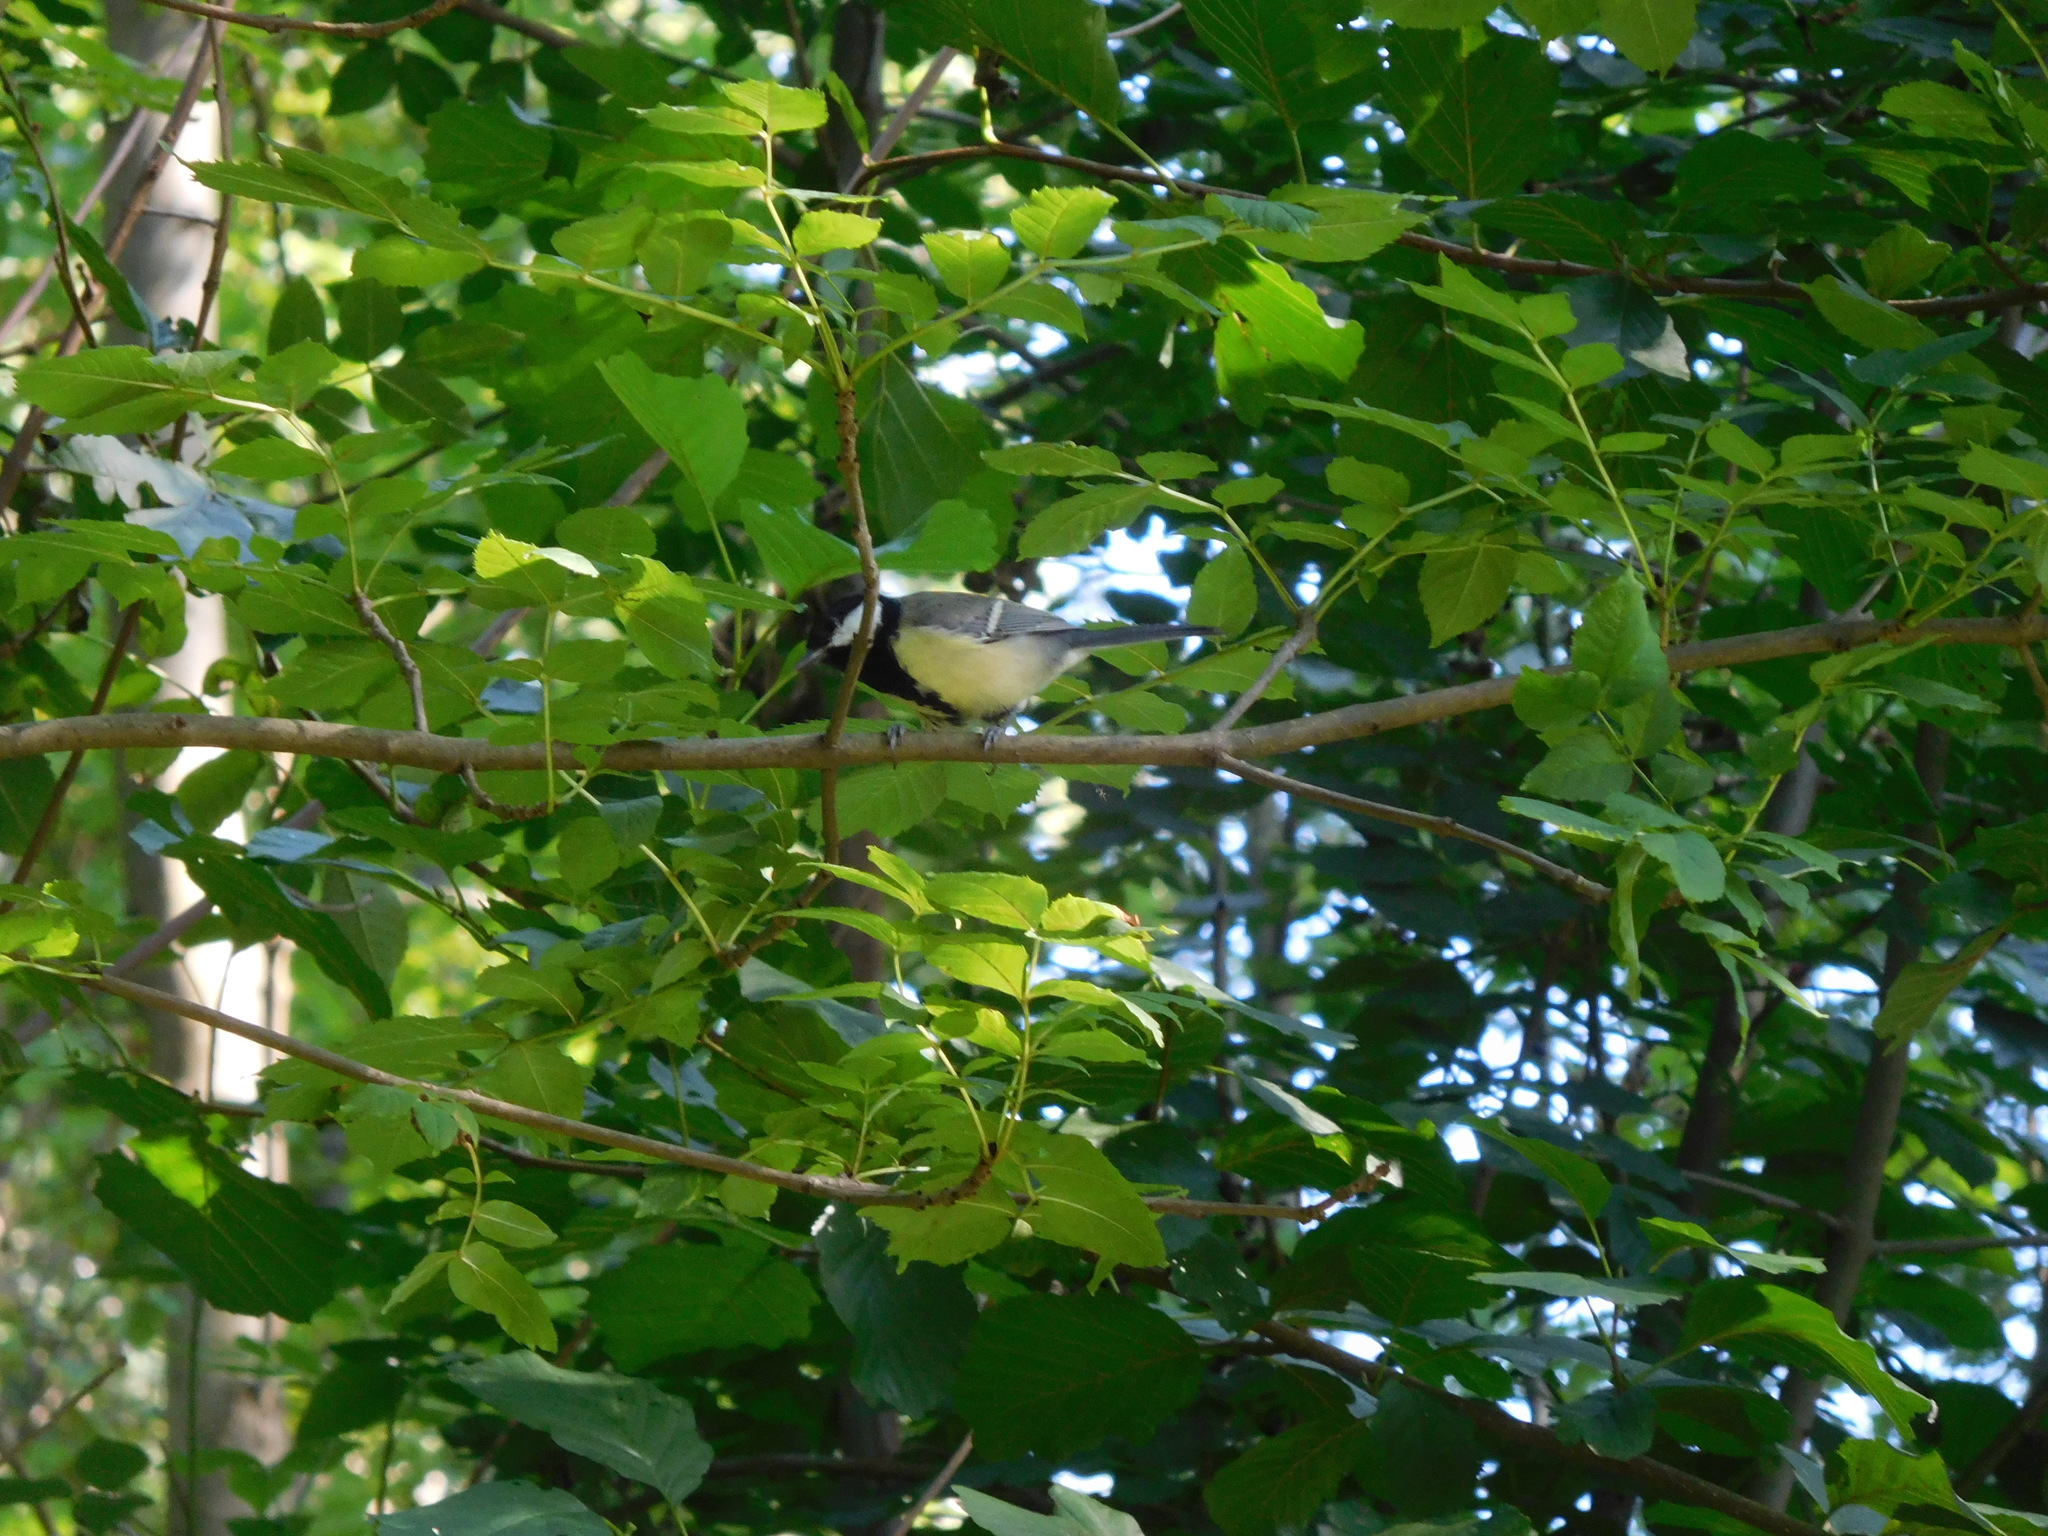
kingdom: Animalia
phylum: Chordata
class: Aves
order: Passeriformes
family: Paridae
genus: Parus
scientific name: Parus major
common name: Great tit
